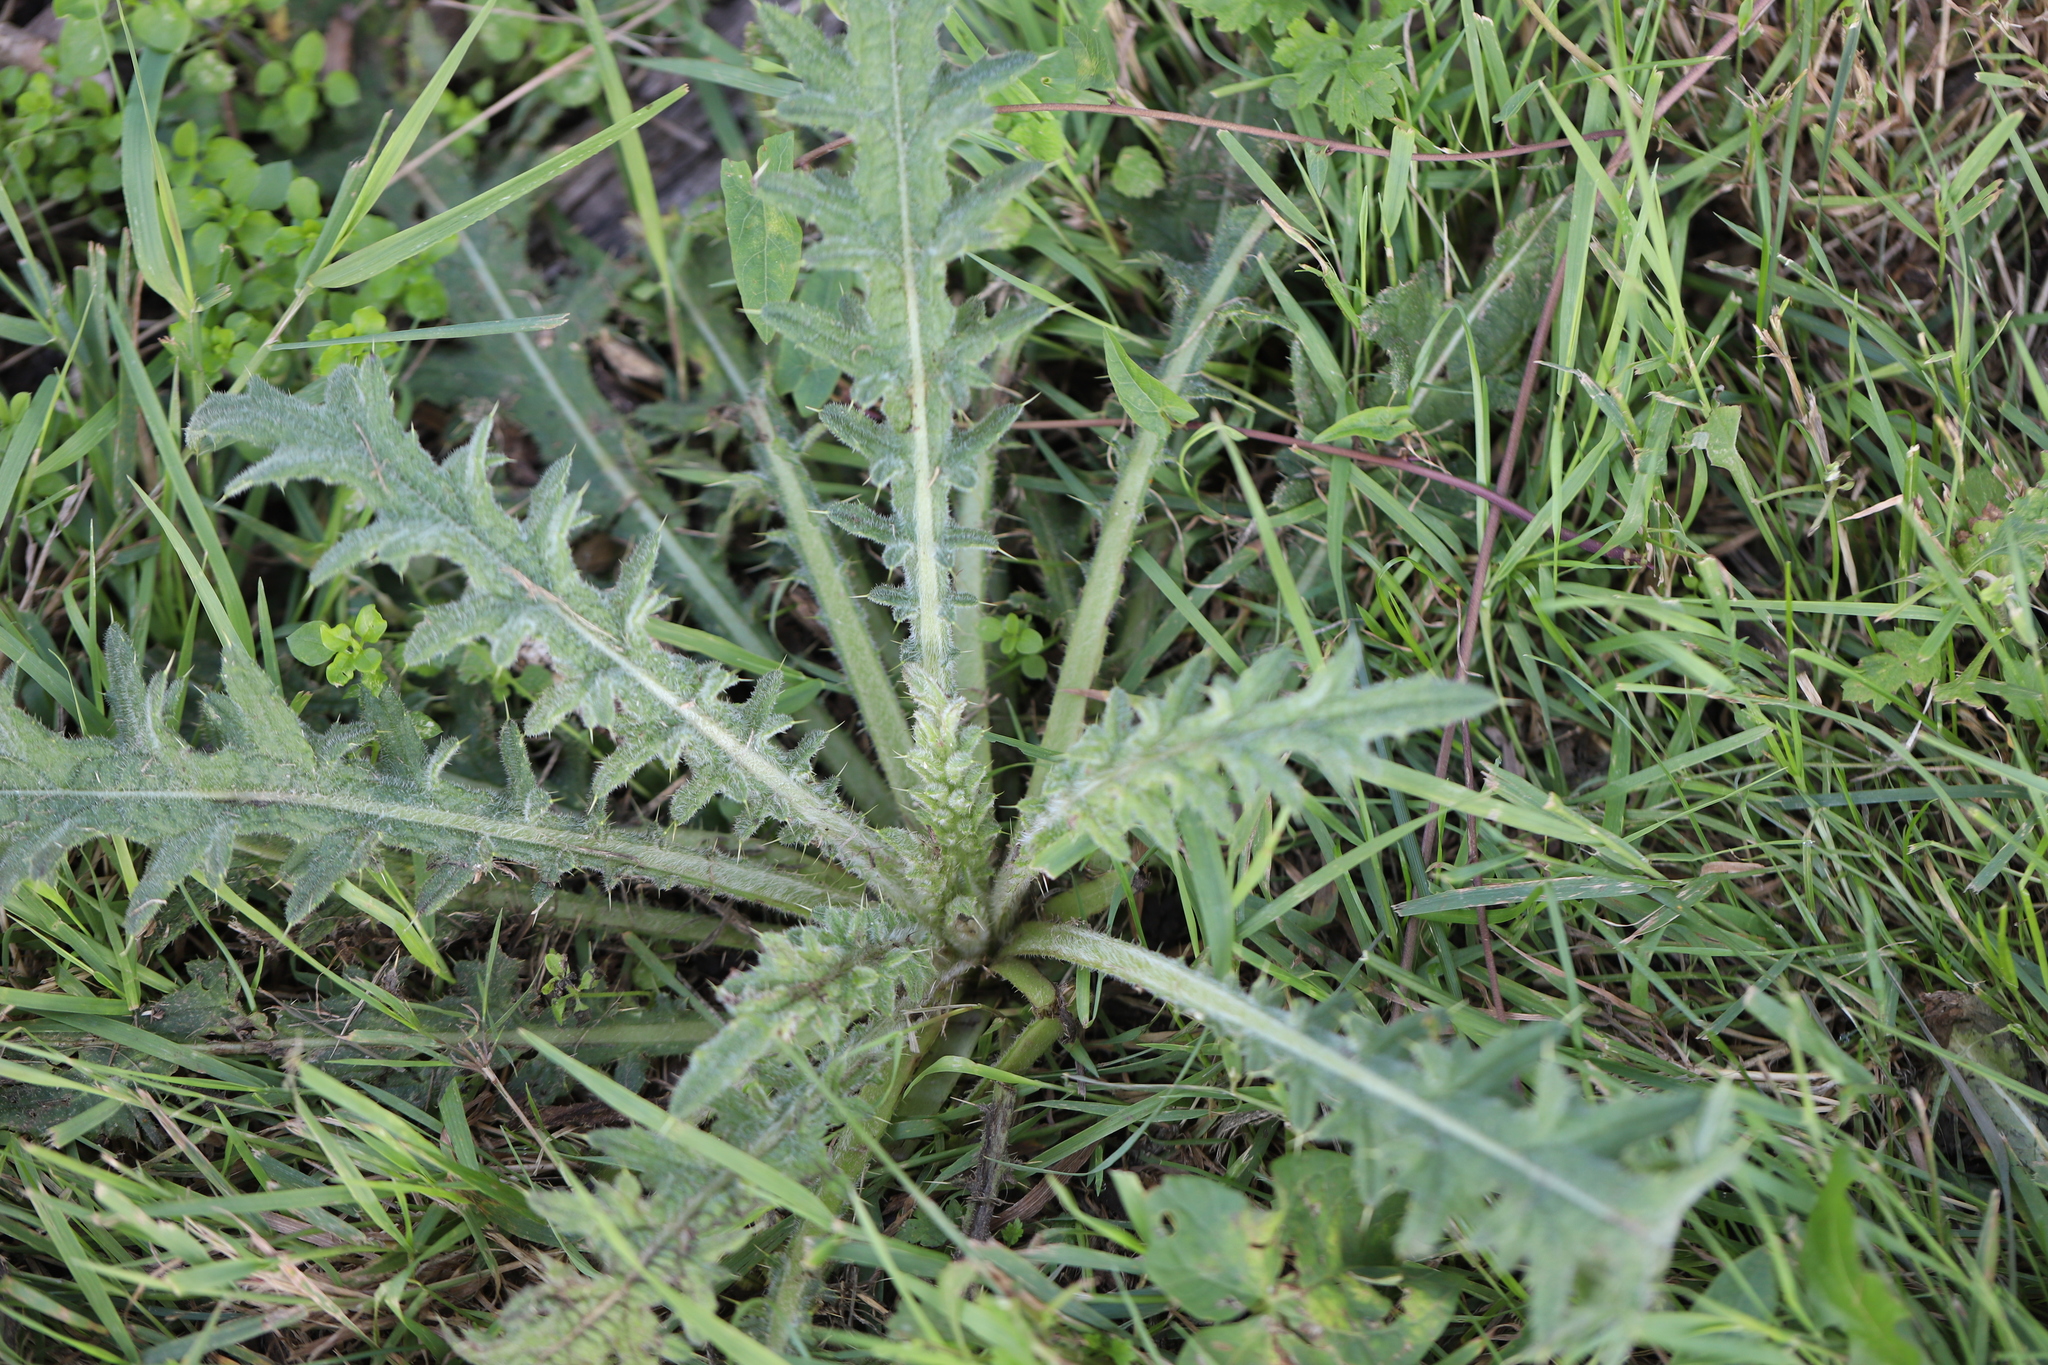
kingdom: Plantae
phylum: Tracheophyta
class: Magnoliopsida
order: Asterales
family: Asteraceae
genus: Cirsium
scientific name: Cirsium vulgare
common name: Bull thistle
